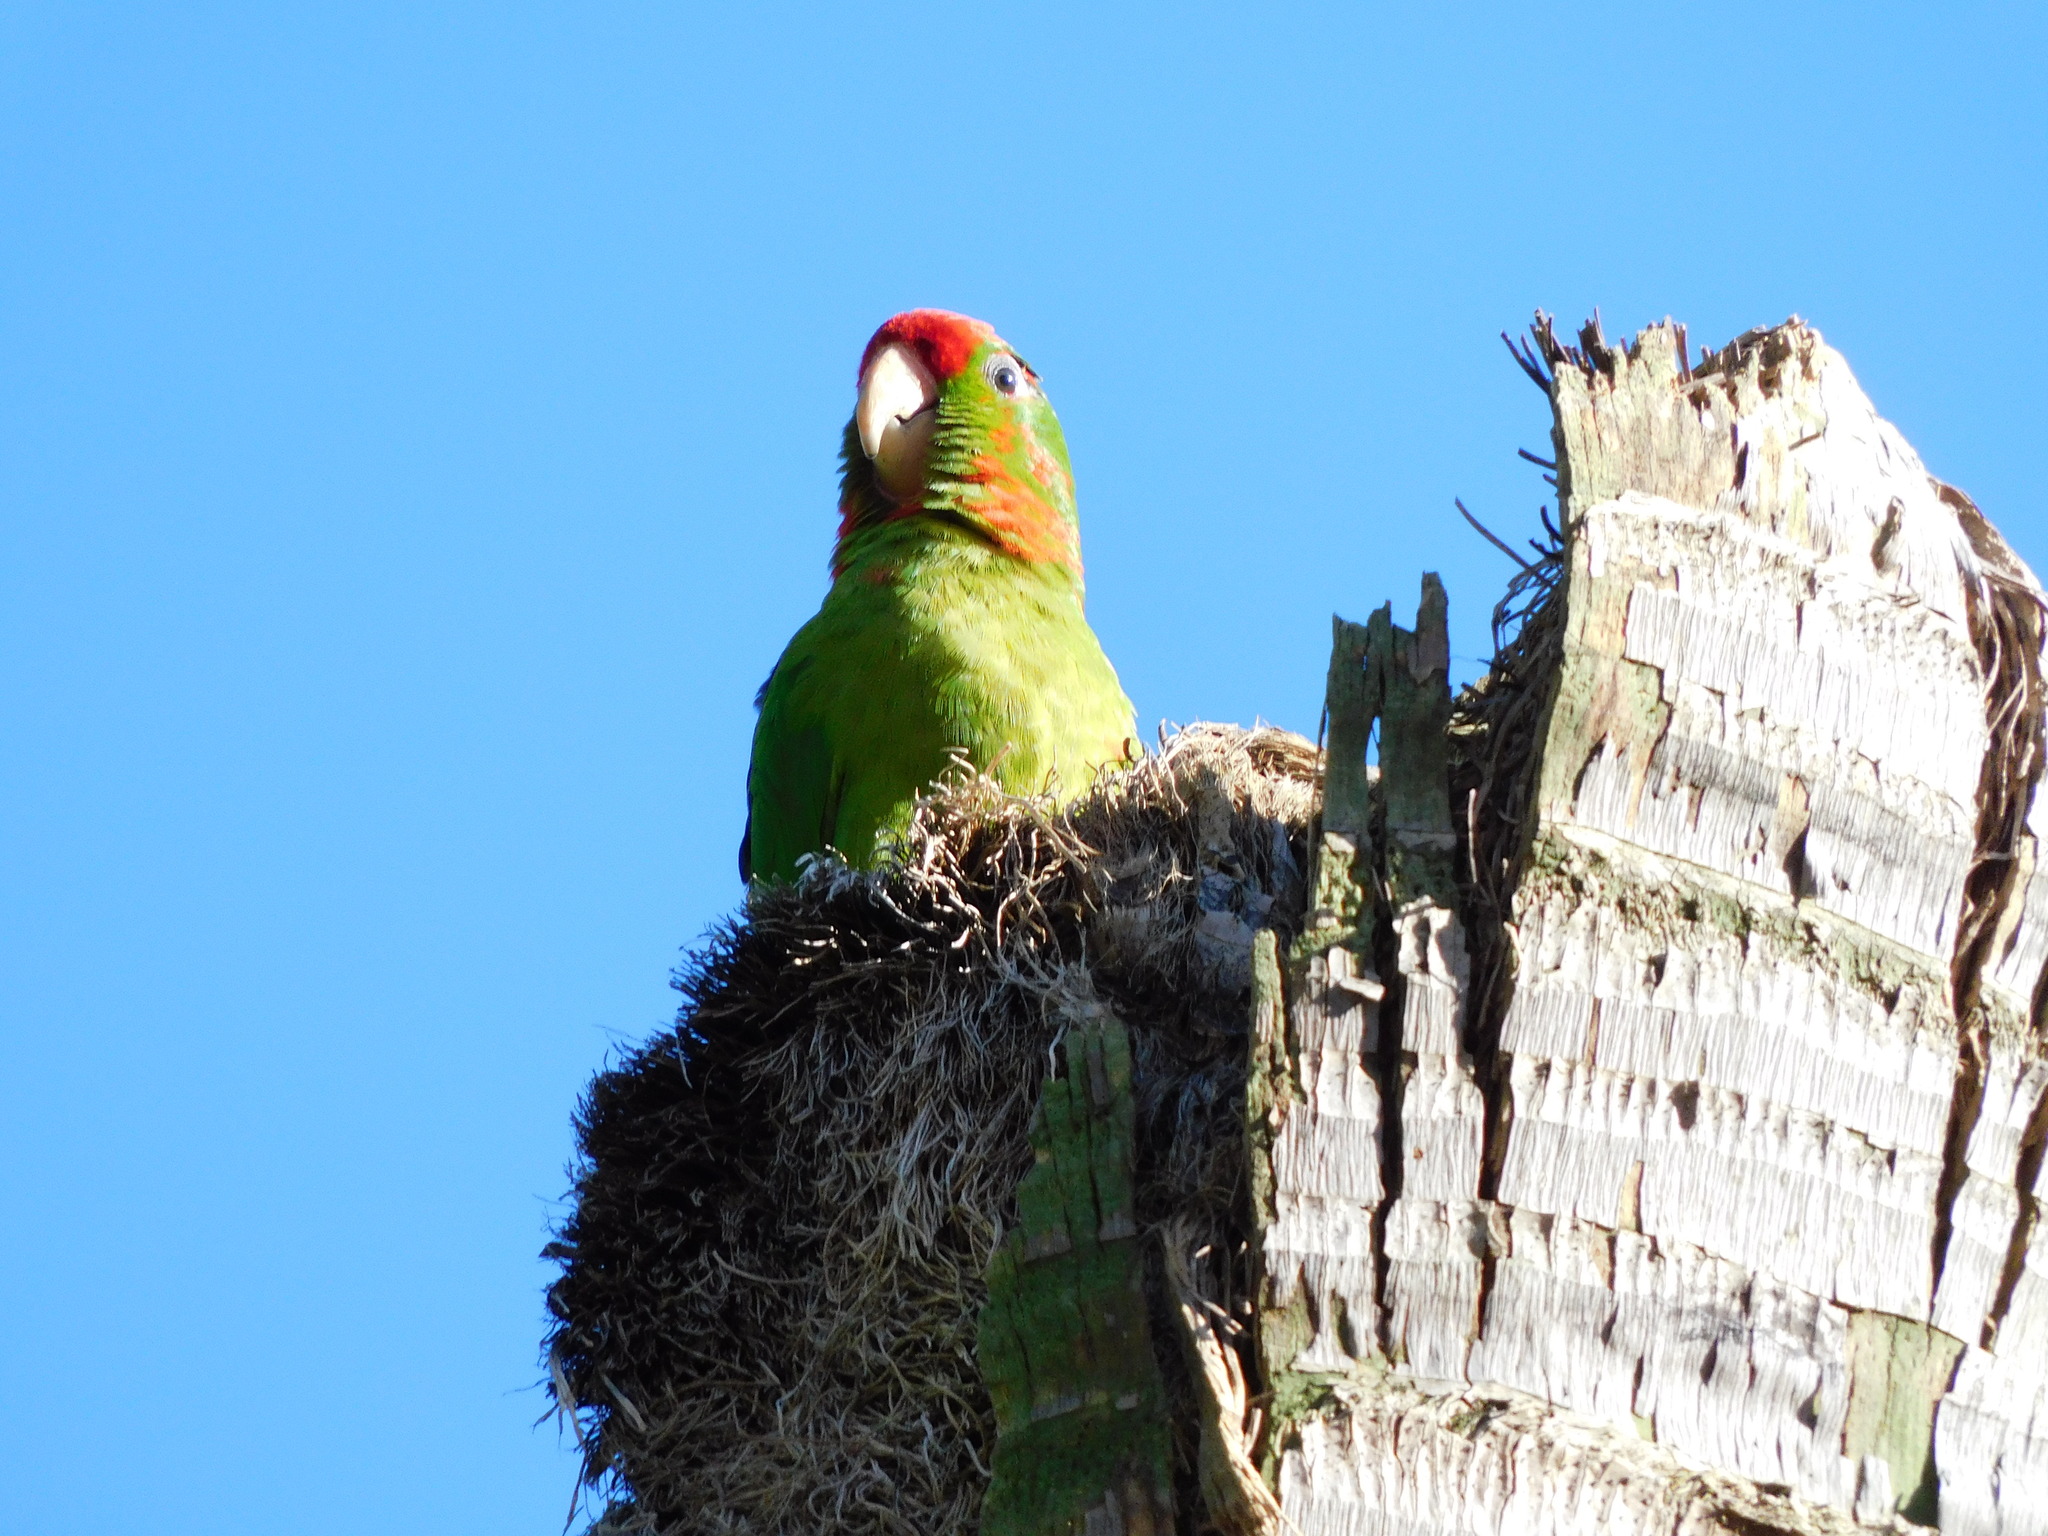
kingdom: Animalia
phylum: Chordata
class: Aves
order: Psittaciformes
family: Psittacidae
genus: Aratinga
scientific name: Aratinga wagleri
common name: Scarlet-fronted parakeet
